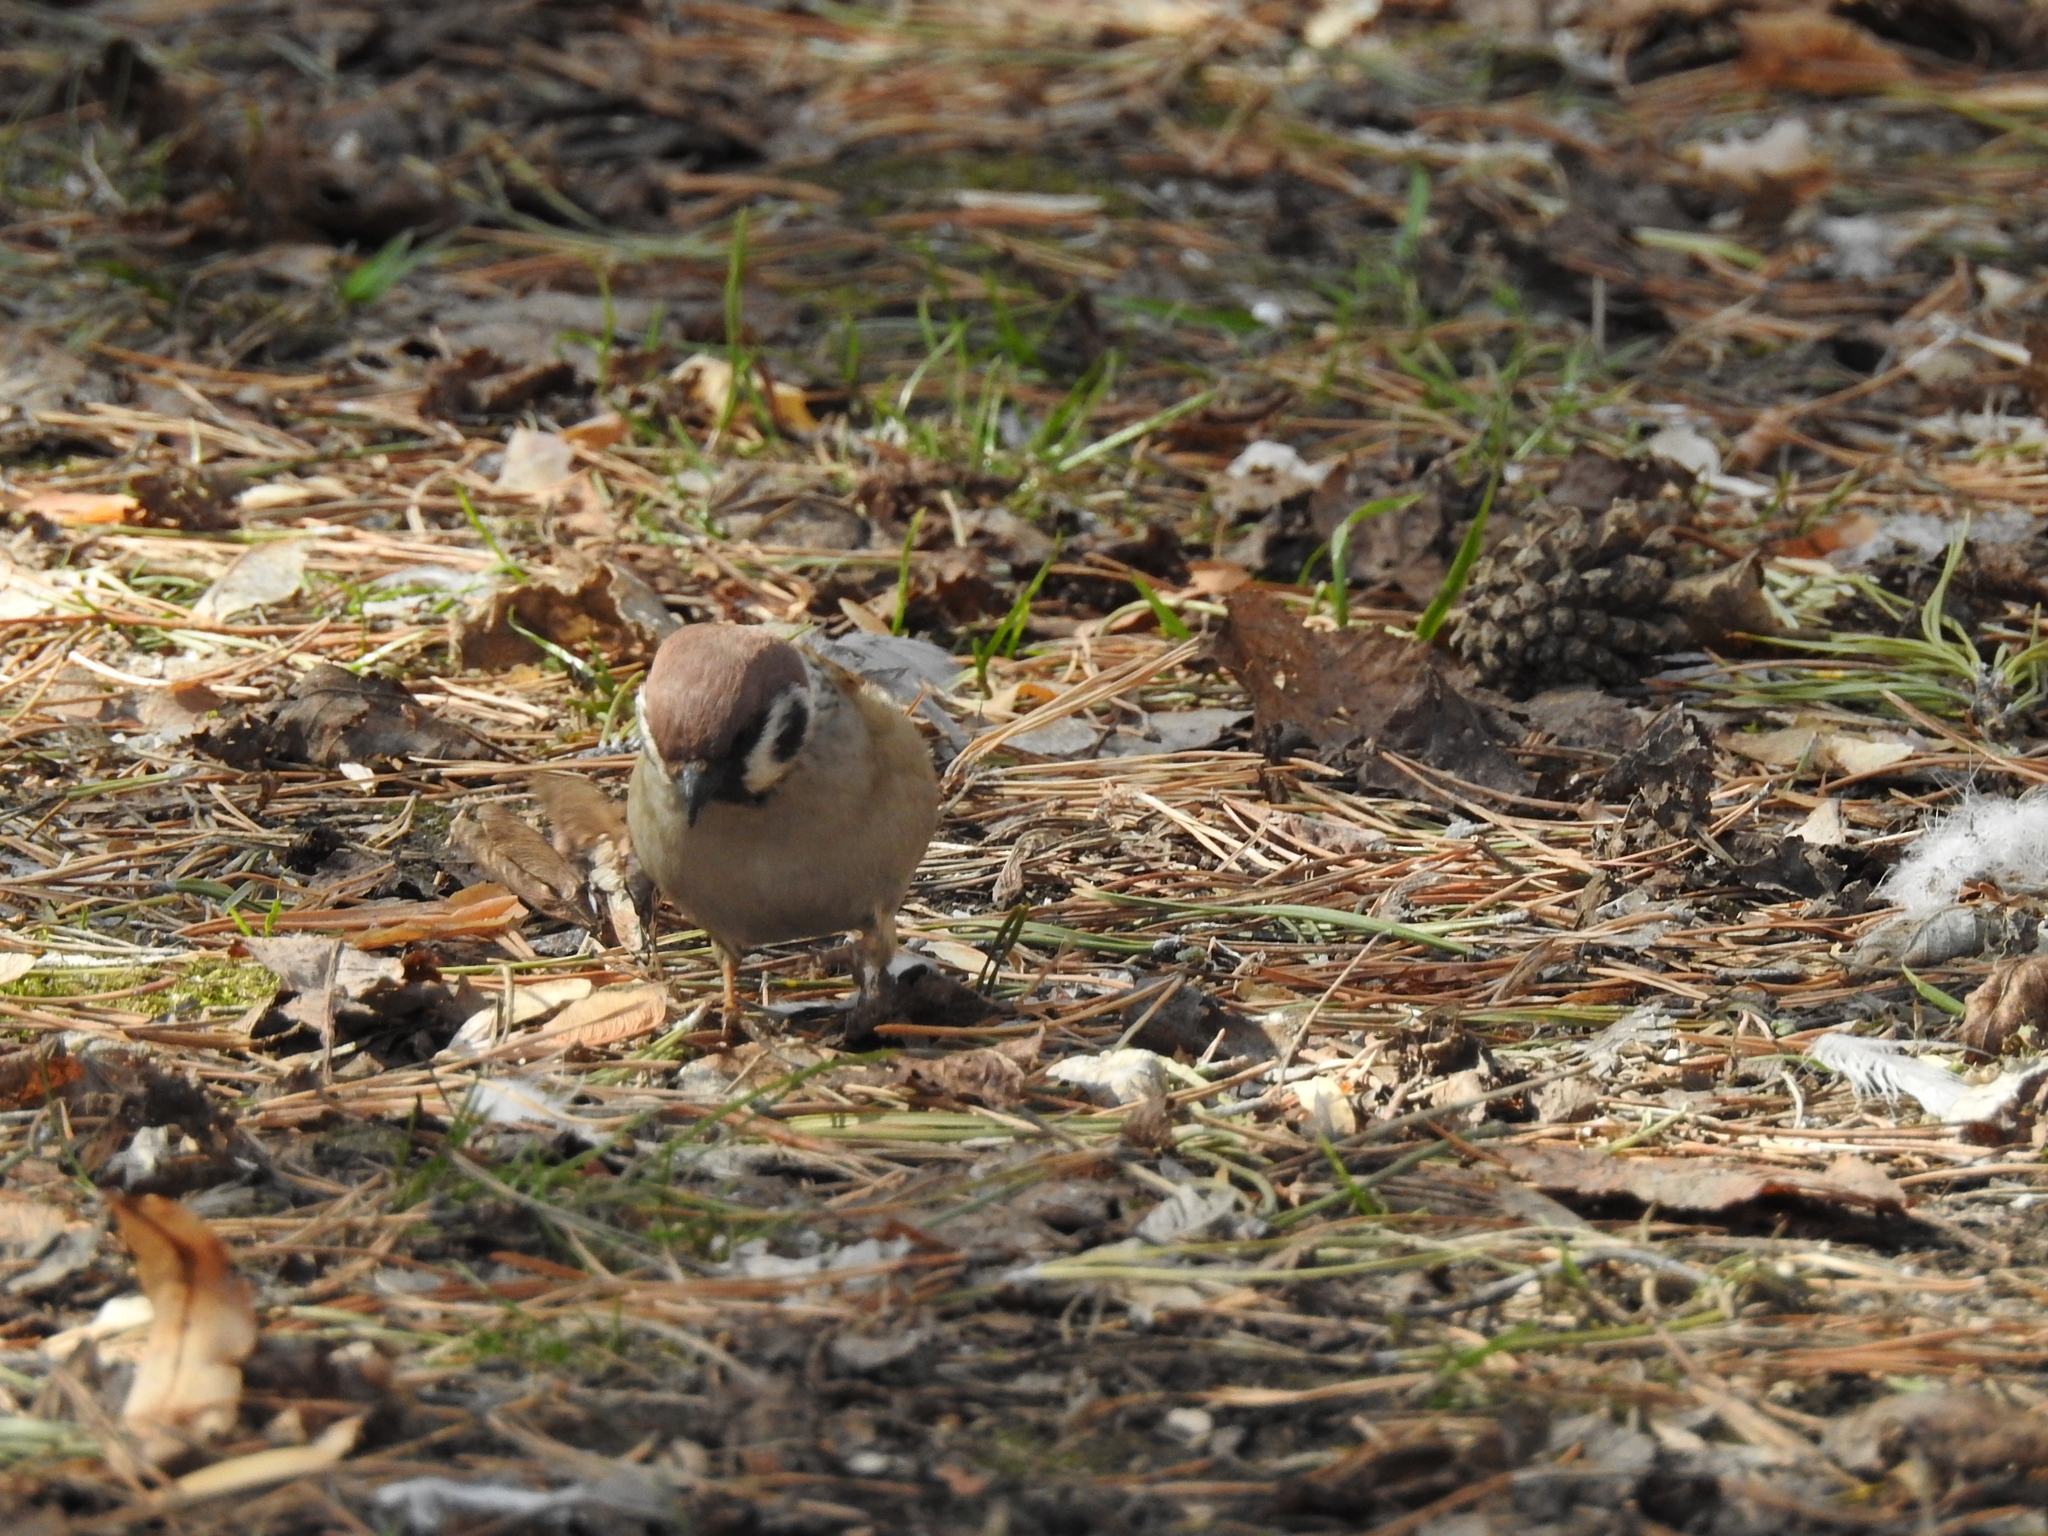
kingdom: Animalia
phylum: Chordata
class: Aves
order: Passeriformes
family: Passeridae
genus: Passer
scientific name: Passer montanus
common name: Eurasian tree sparrow
